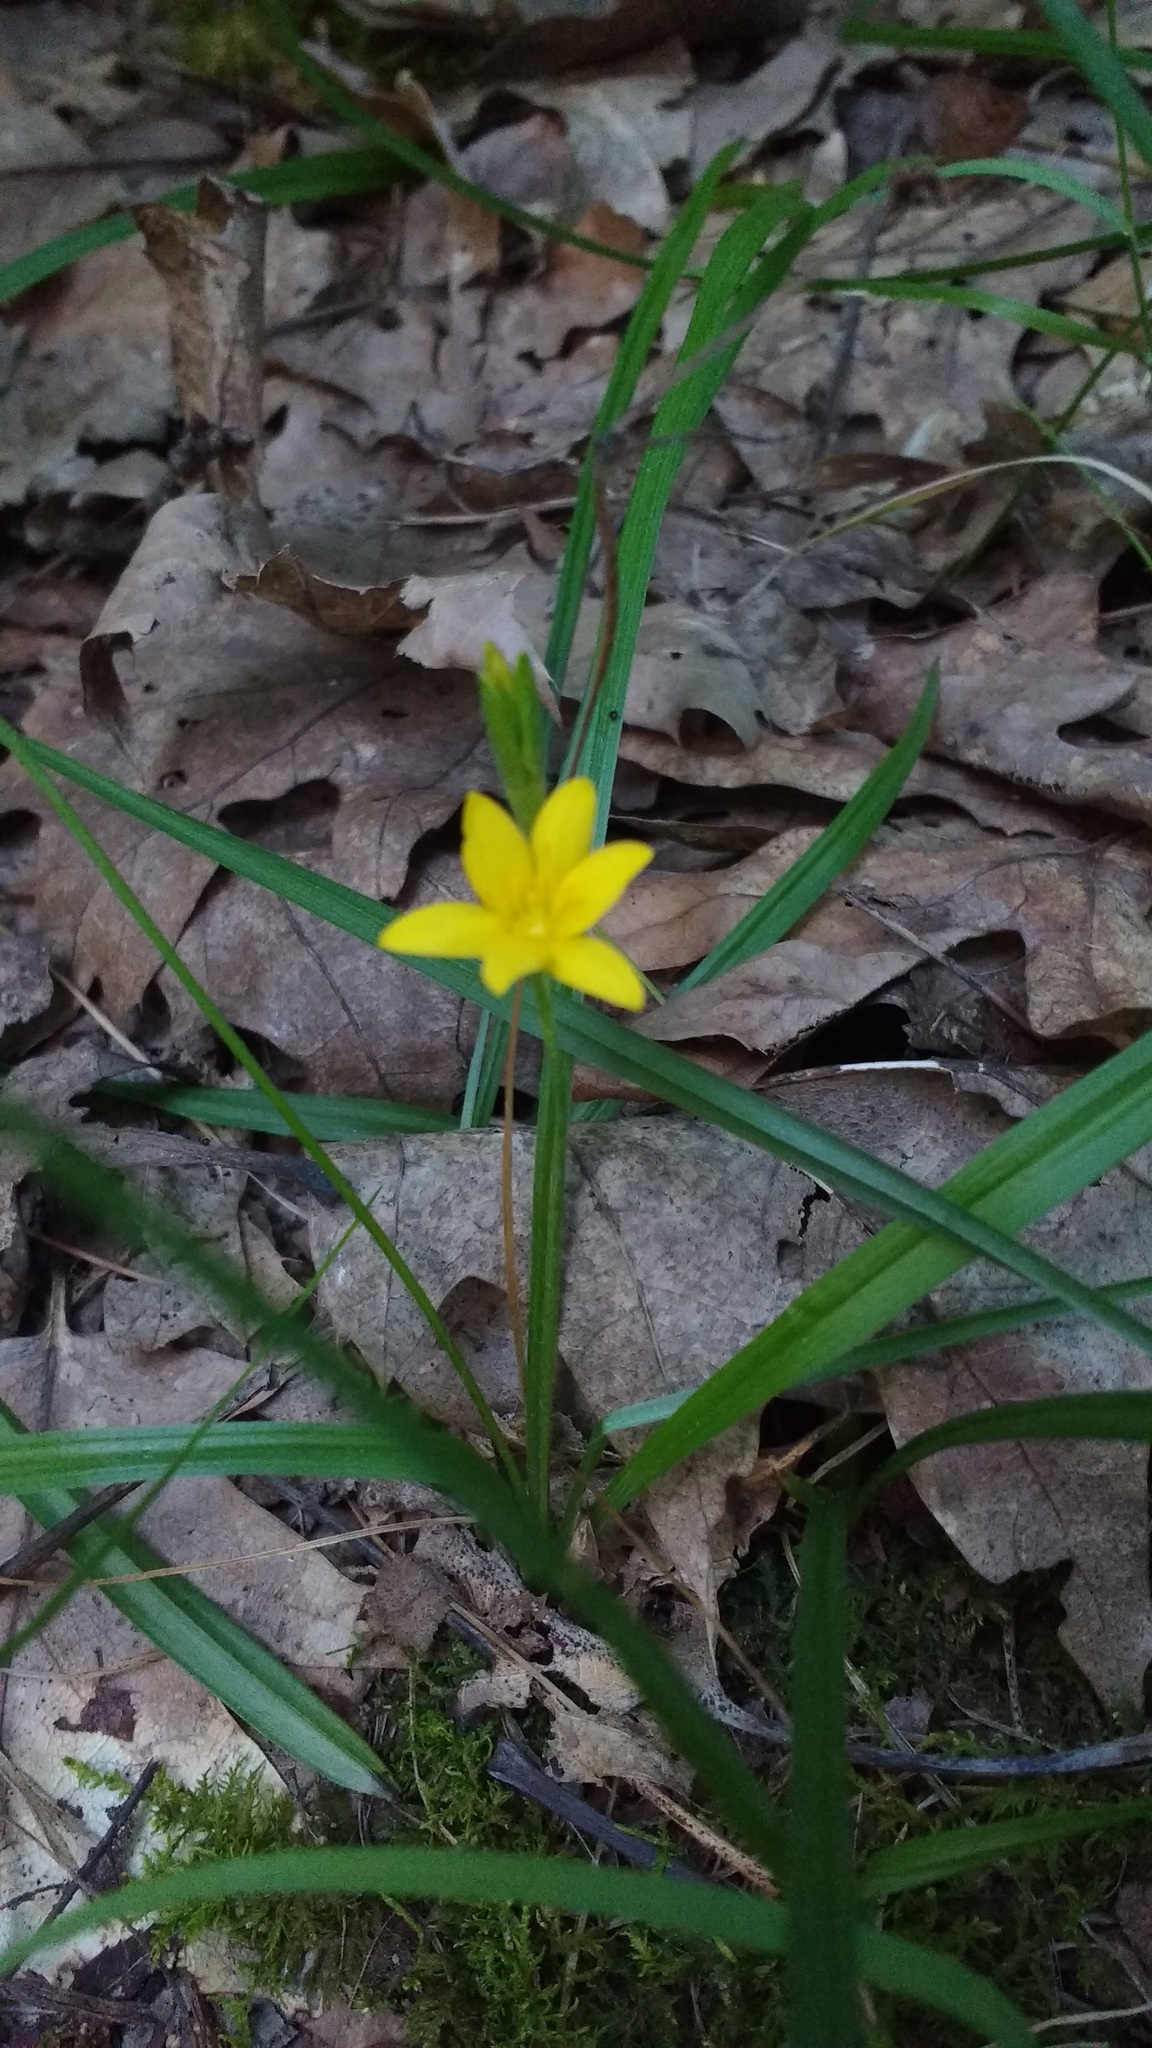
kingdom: Plantae
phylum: Tracheophyta
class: Liliopsida
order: Asparagales
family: Hypoxidaceae
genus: Hypoxis
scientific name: Hypoxis hirsuta
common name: Common goldstar
